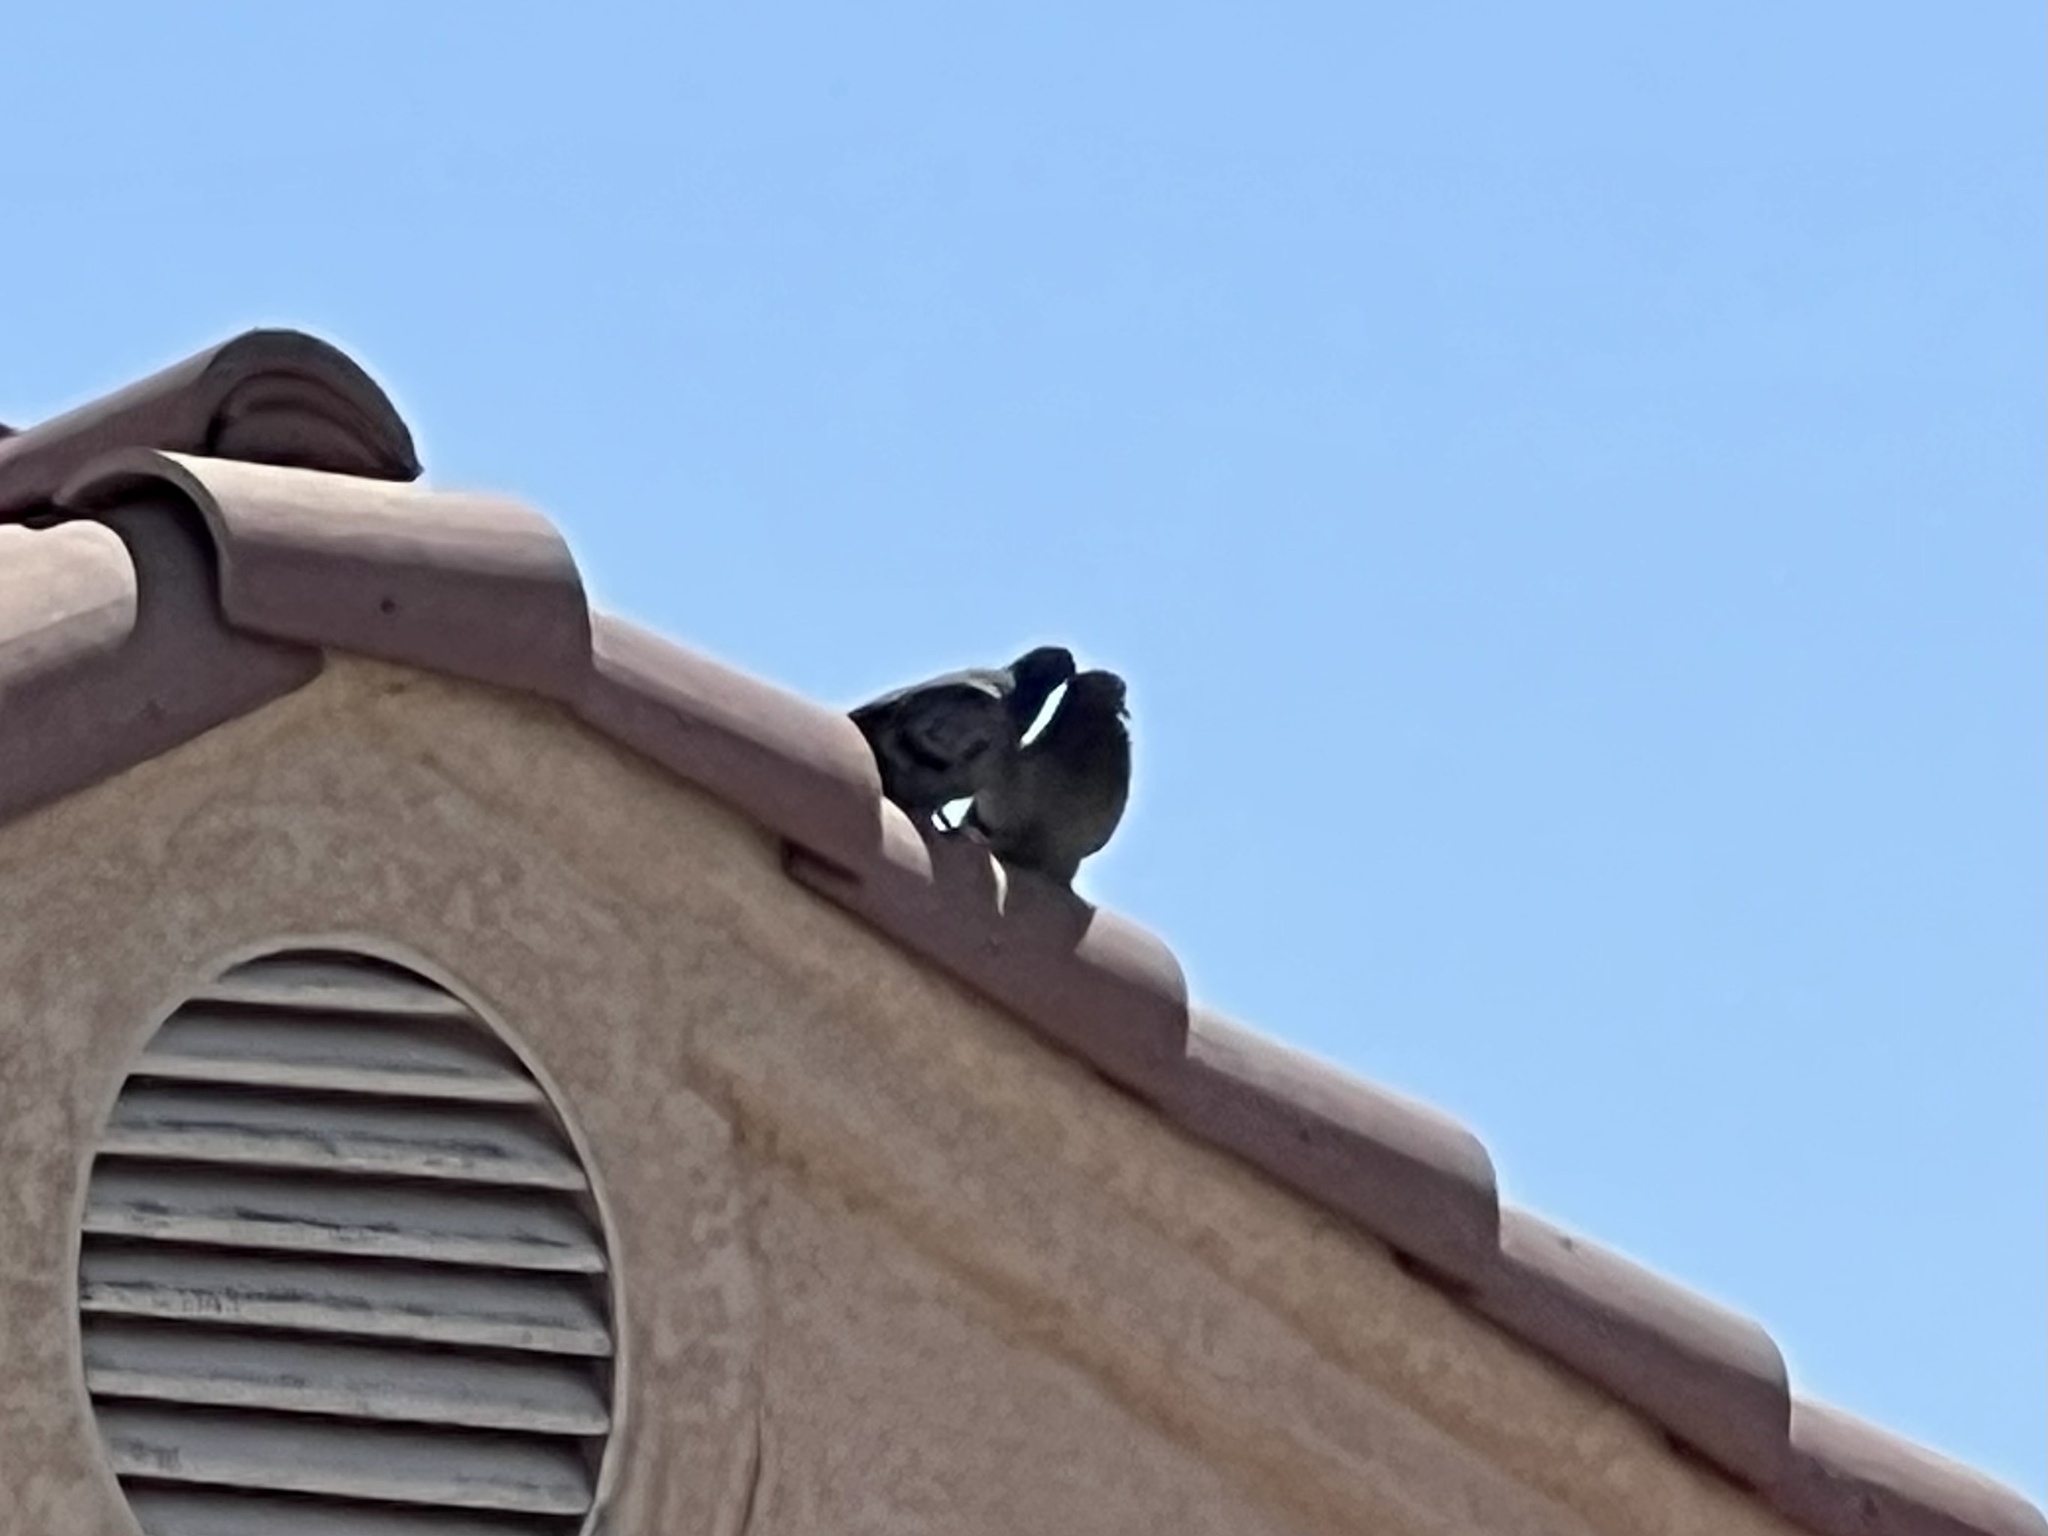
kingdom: Animalia
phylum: Chordata
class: Aves
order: Columbiformes
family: Columbidae
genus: Columba
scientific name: Columba livia
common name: Rock pigeon
